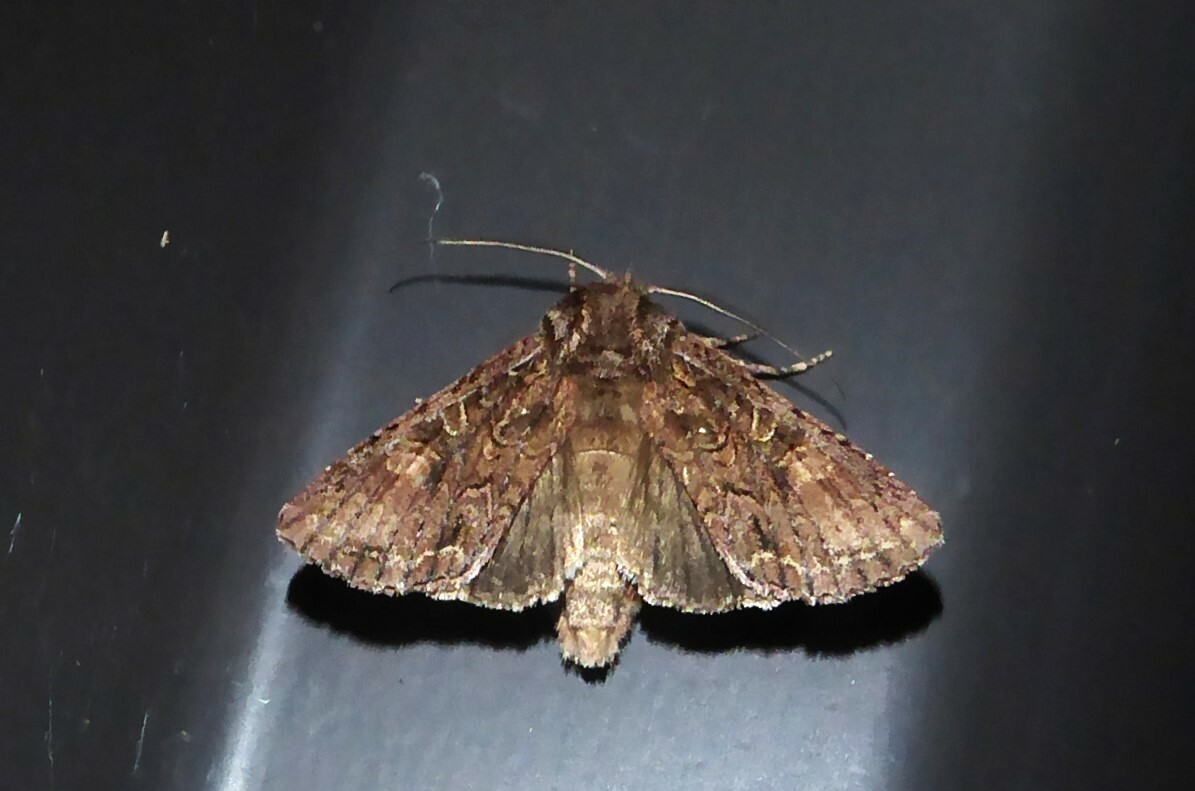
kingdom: Animalia
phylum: Arthropoda
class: Insecta
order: Lepidoptera
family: Noctuidae
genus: Ichneutica
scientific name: Ichneutica mutans
